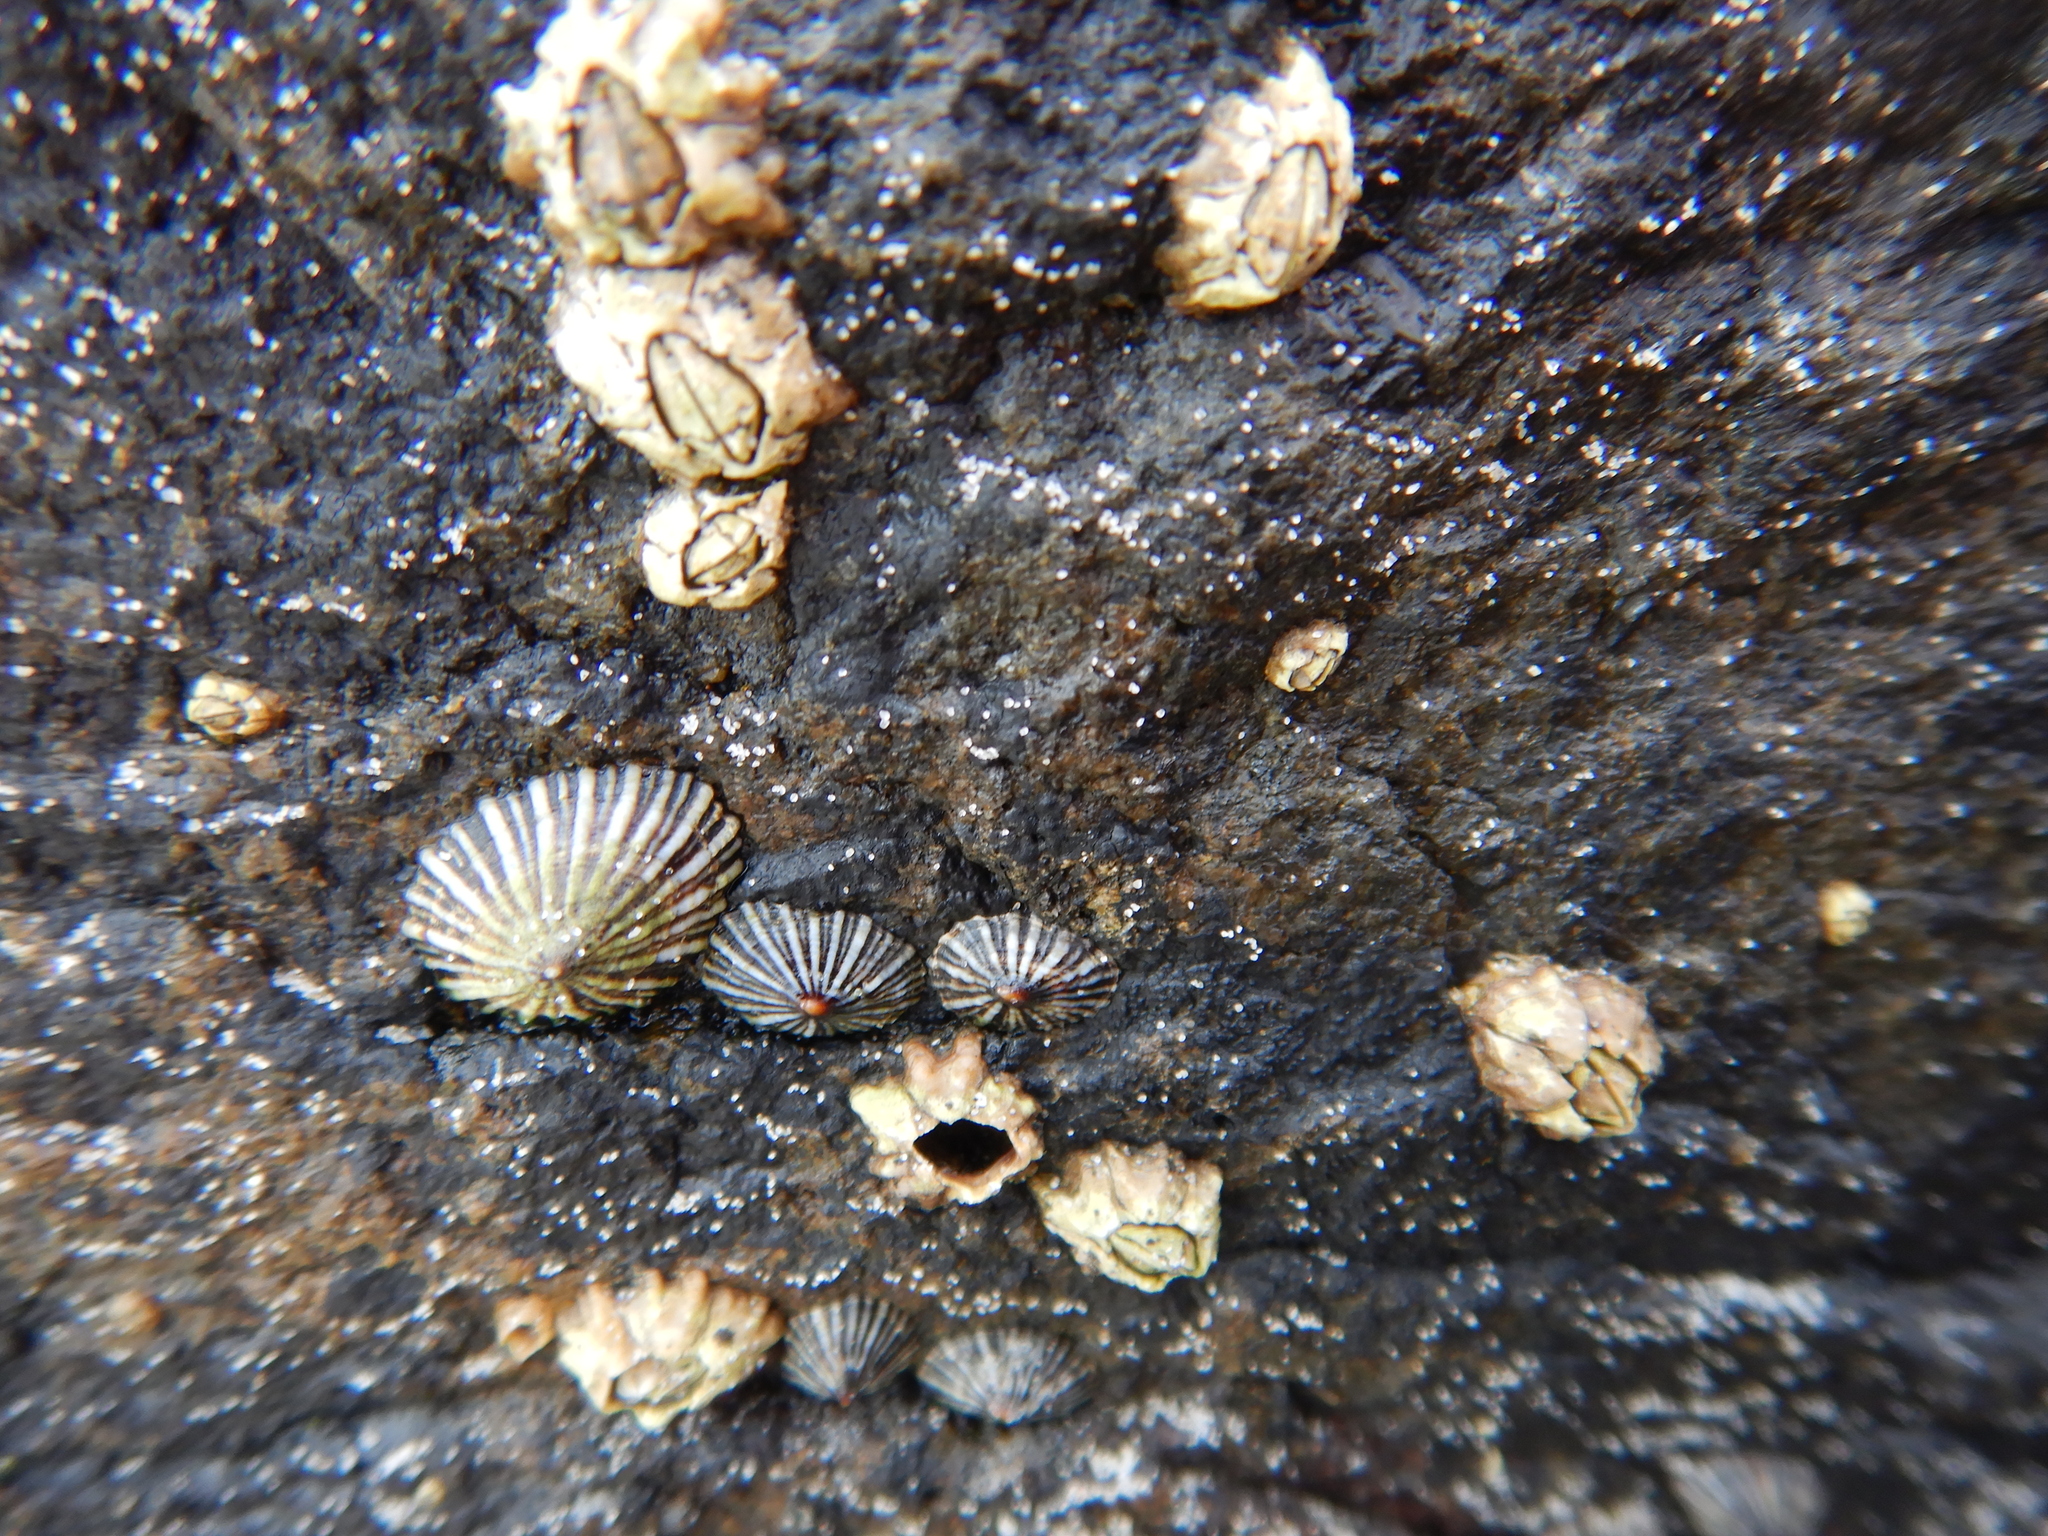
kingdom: Animalia
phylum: Arthropoda
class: Maxillopoda
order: Sessilia
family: Chthamalidae
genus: Chthamalus
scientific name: Chthamalus antennatus
